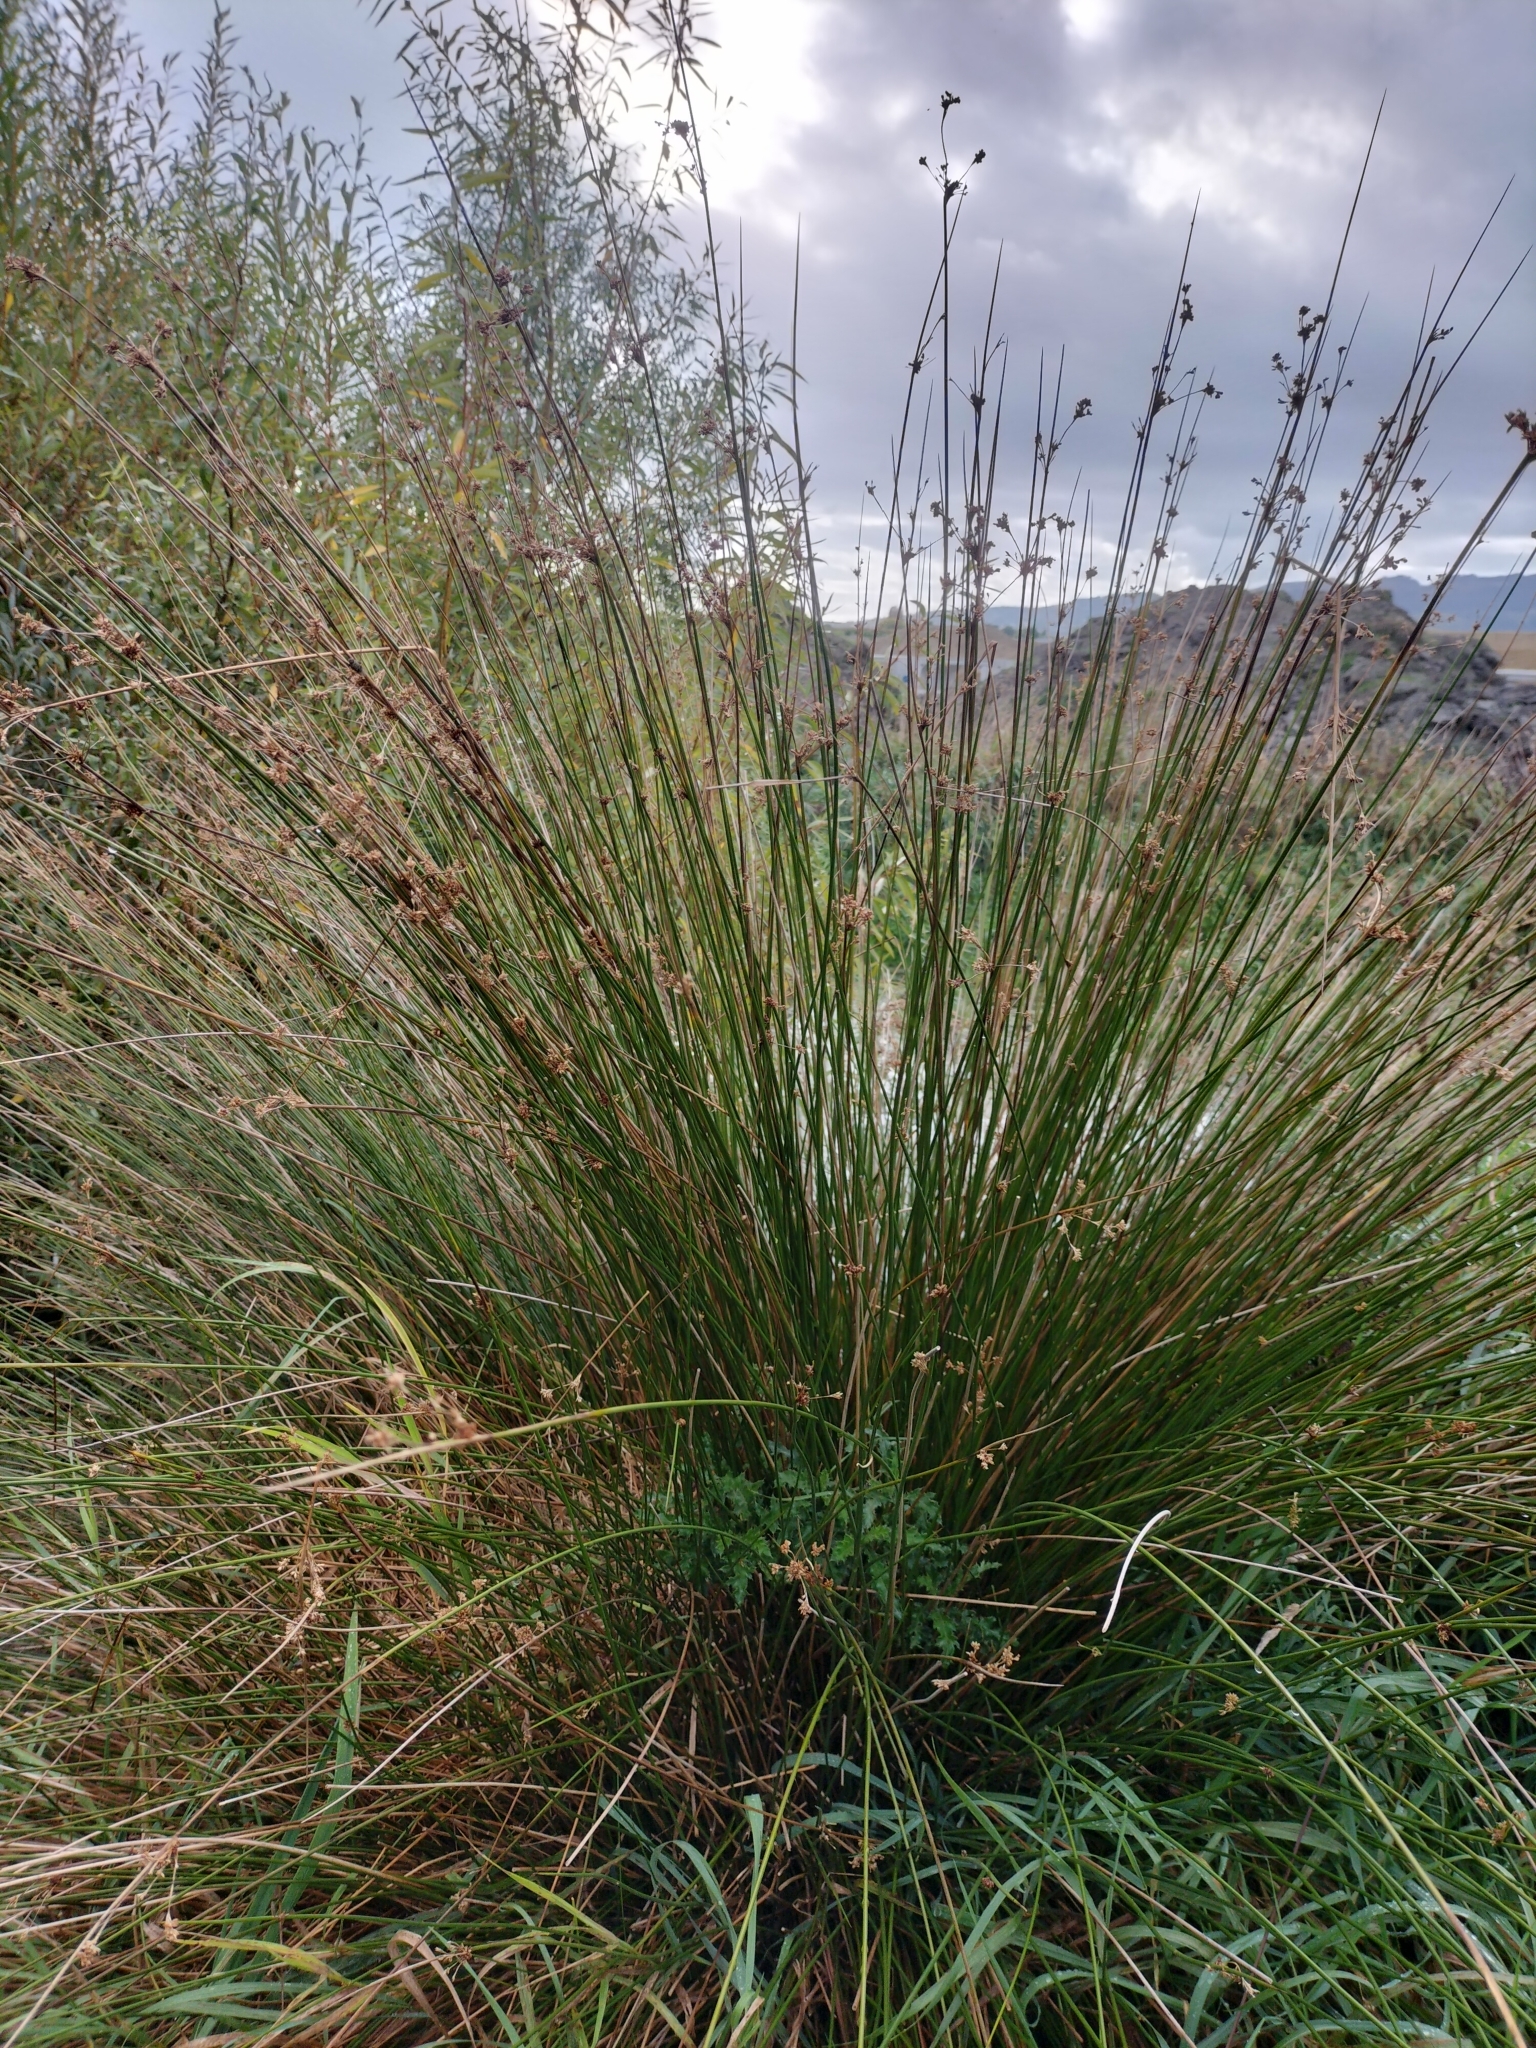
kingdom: Plantae
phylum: Tracheophyta
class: Liliopsida
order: Poales
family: Juncaceae
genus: Juncus
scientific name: Juncus edgariae
